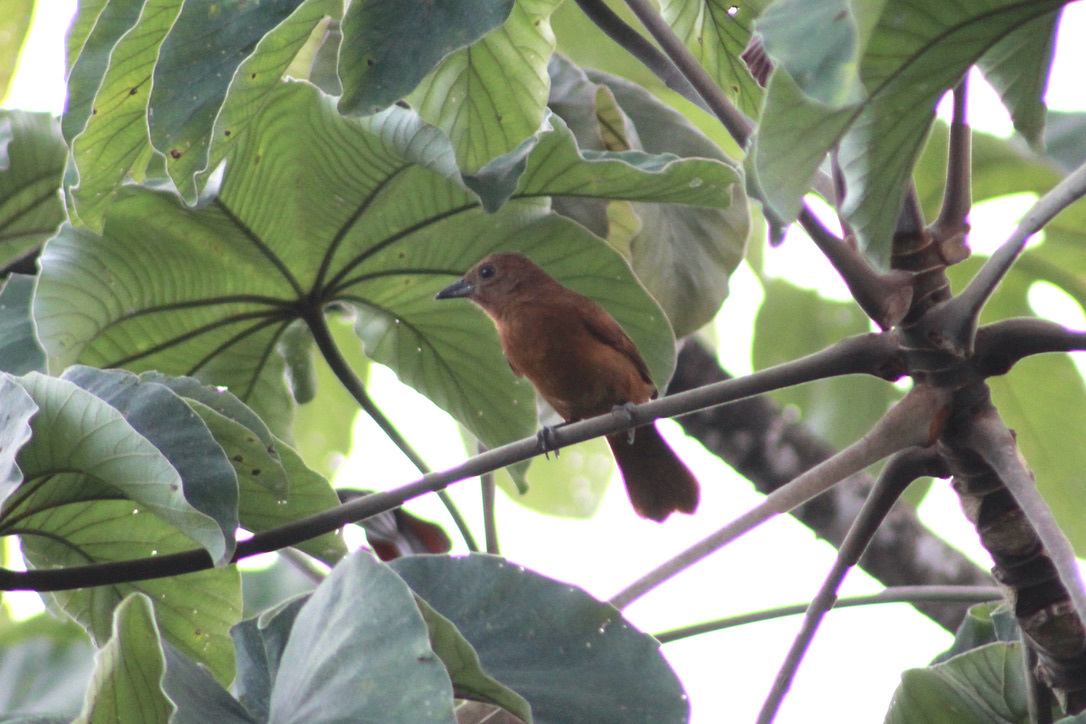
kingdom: Animalia
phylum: Chordata
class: Aves
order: Passeriformes
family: Thraupidae
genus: Tachyphonus
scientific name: Tachyphonus rufus
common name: White-lined tanager
